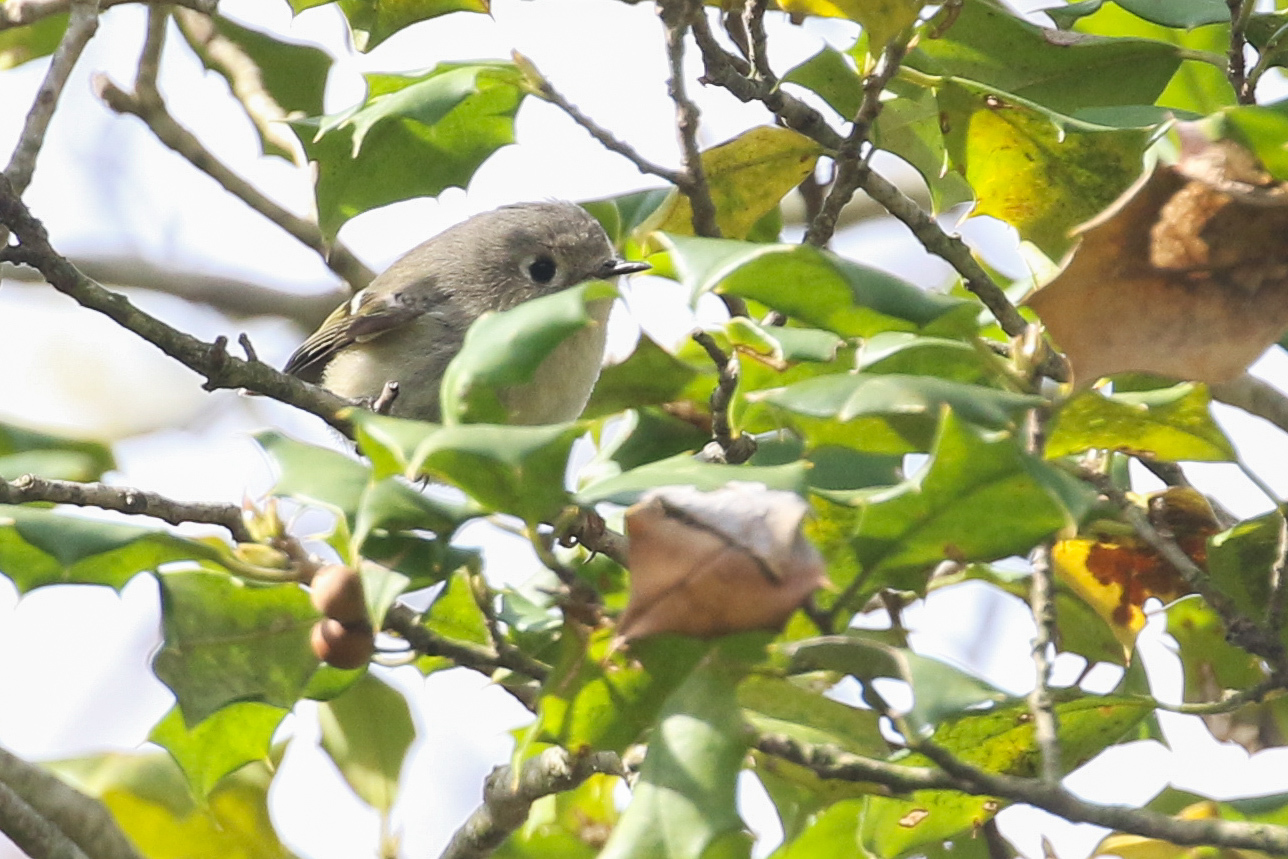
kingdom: Animalia
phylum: Chordata
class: Aves
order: Passeriformes
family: Regulidae
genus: Regulus
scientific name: Regulus calendula
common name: Ruby-crowned kinglet
